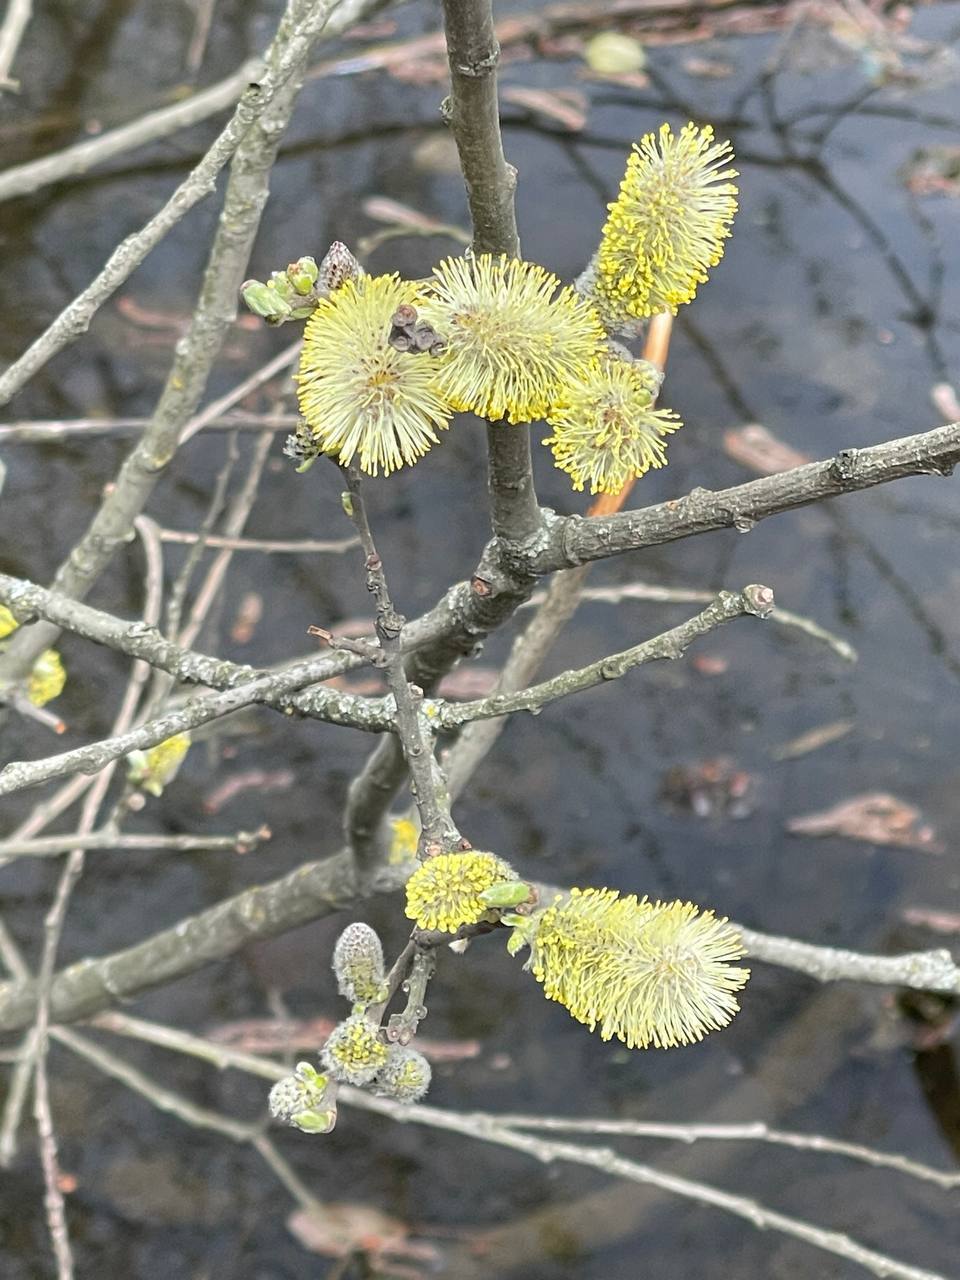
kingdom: Plantae
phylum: Tracheophyta
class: Magnoliopsida
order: Malpighiales
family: Salicaceae
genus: Salix
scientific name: Salix caprea
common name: Goat willow
